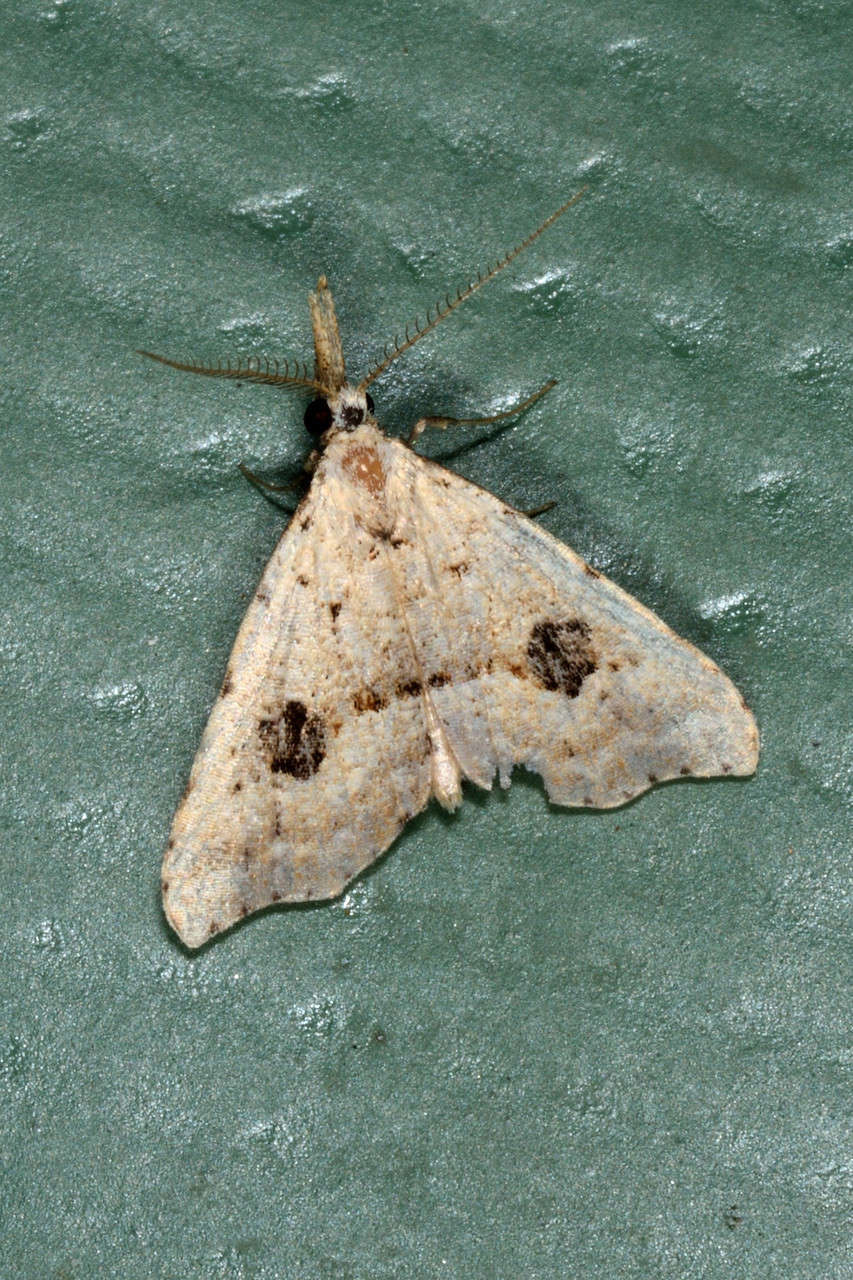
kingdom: Animalia
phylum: Arthropoda
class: Insecta
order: Lepidoptera
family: Erebidae
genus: Trigonistis
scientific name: Trigonistis asthenopa
